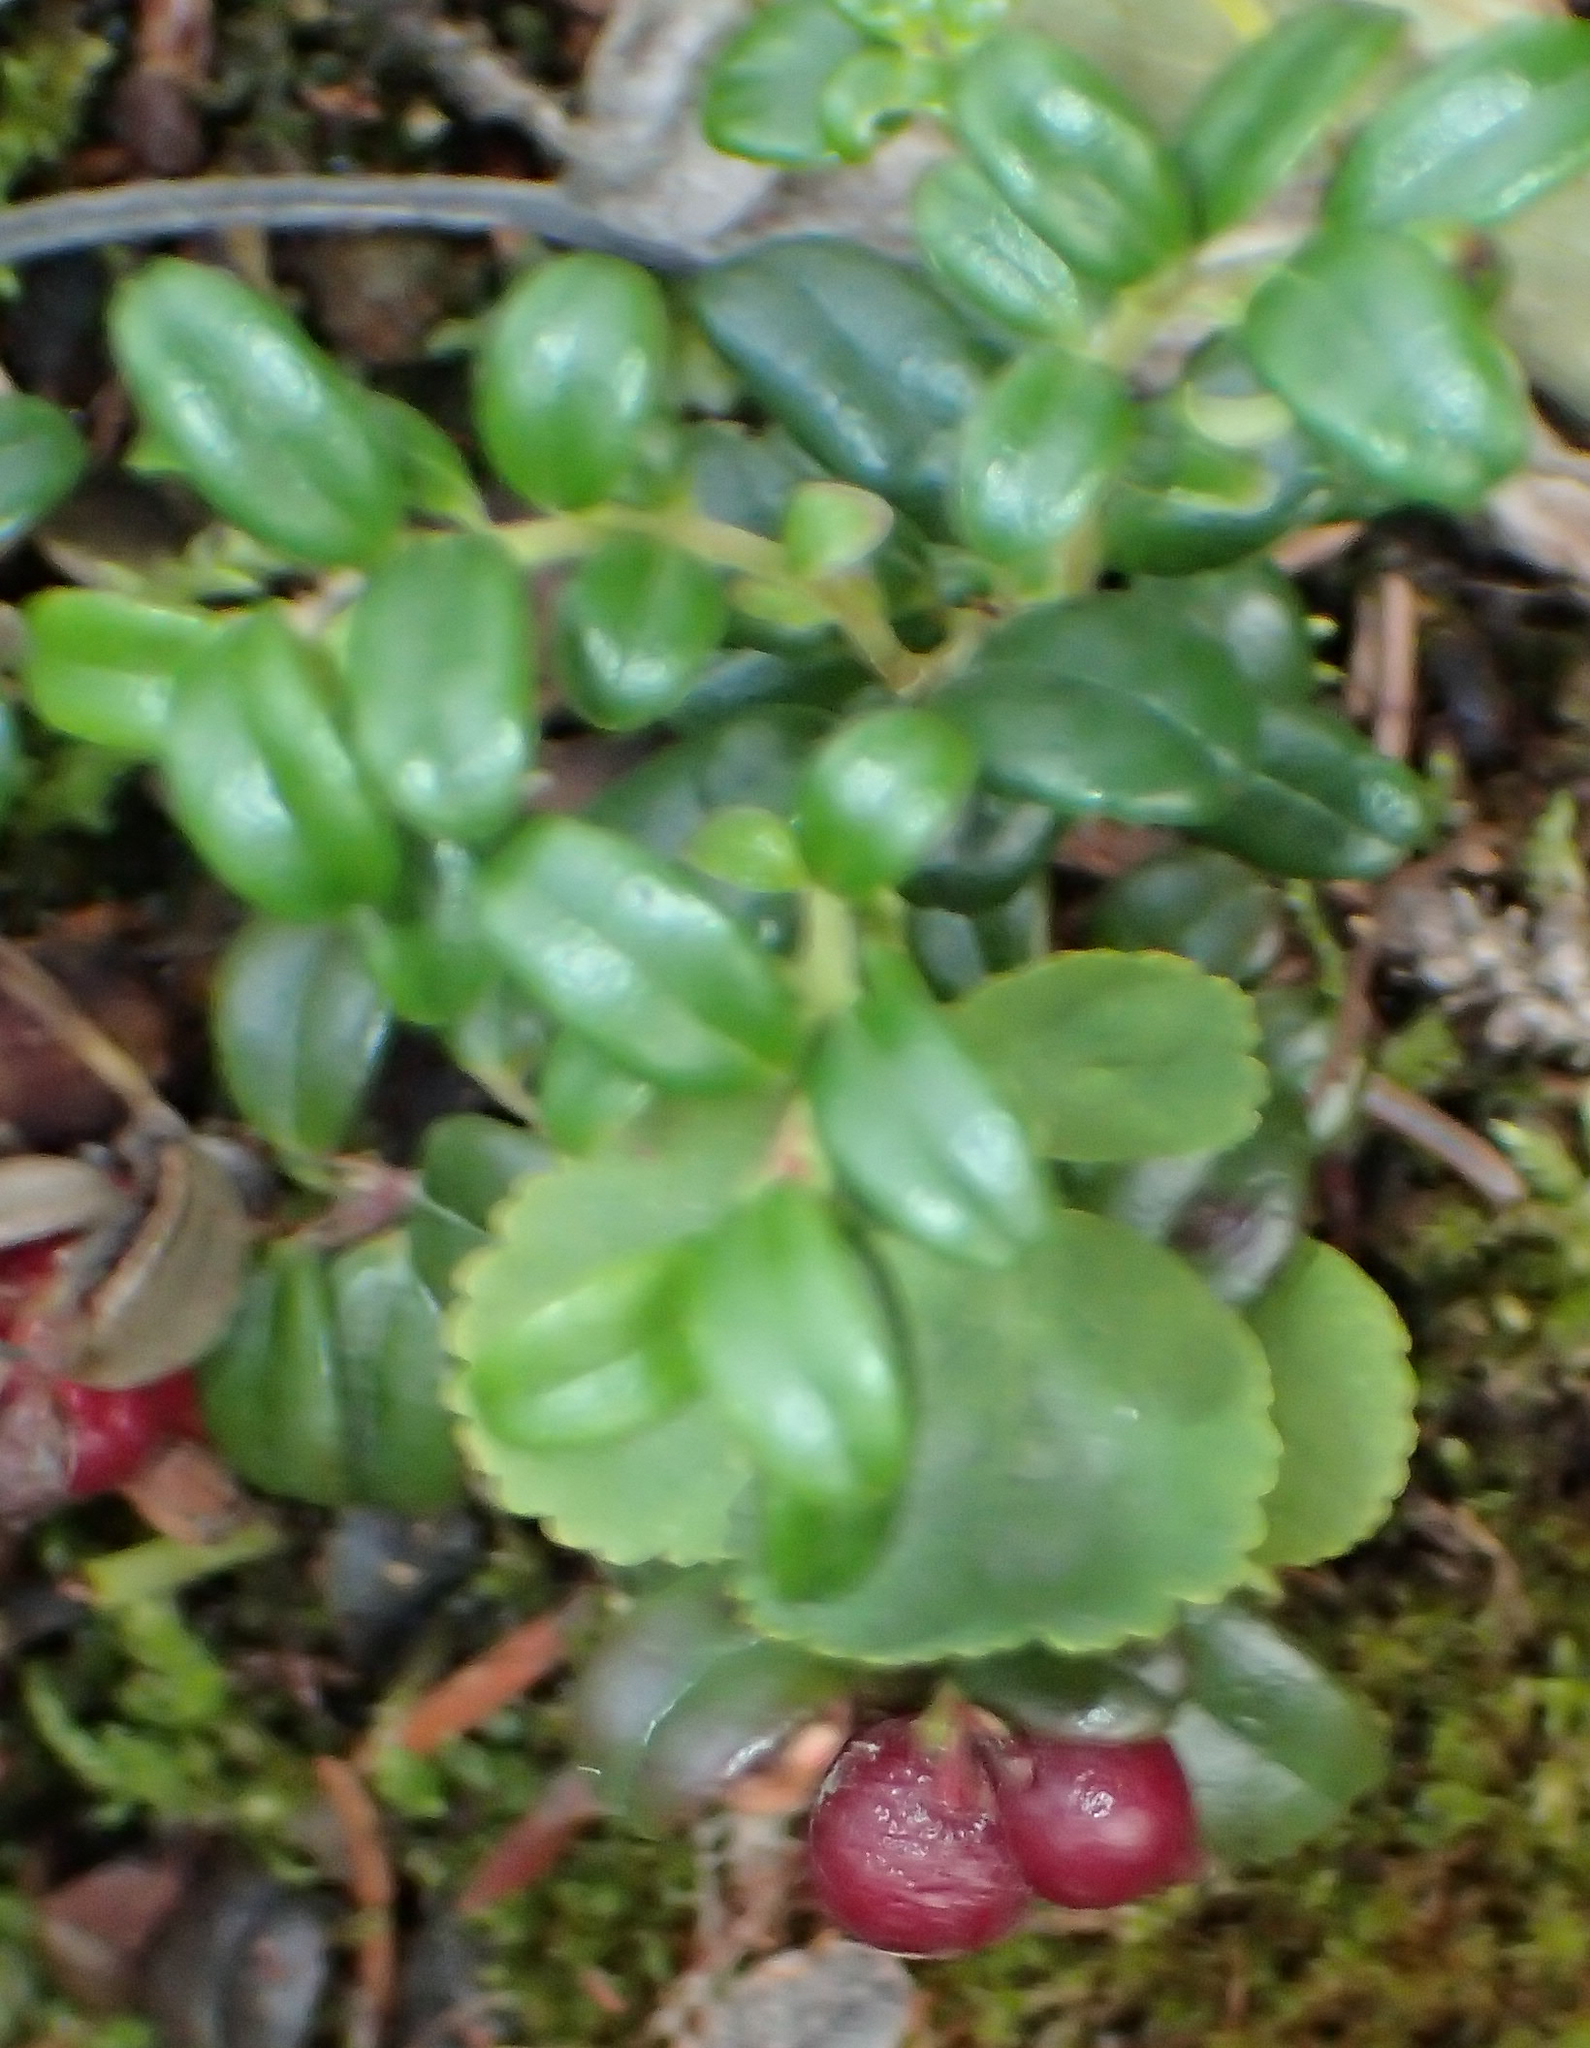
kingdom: Plantae
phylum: Tracheophyta
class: Magnoliopsida
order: Ericales
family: Ericaceae
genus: Vaccinium
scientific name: Vaccinium vitis-idaea
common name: Cowberry
